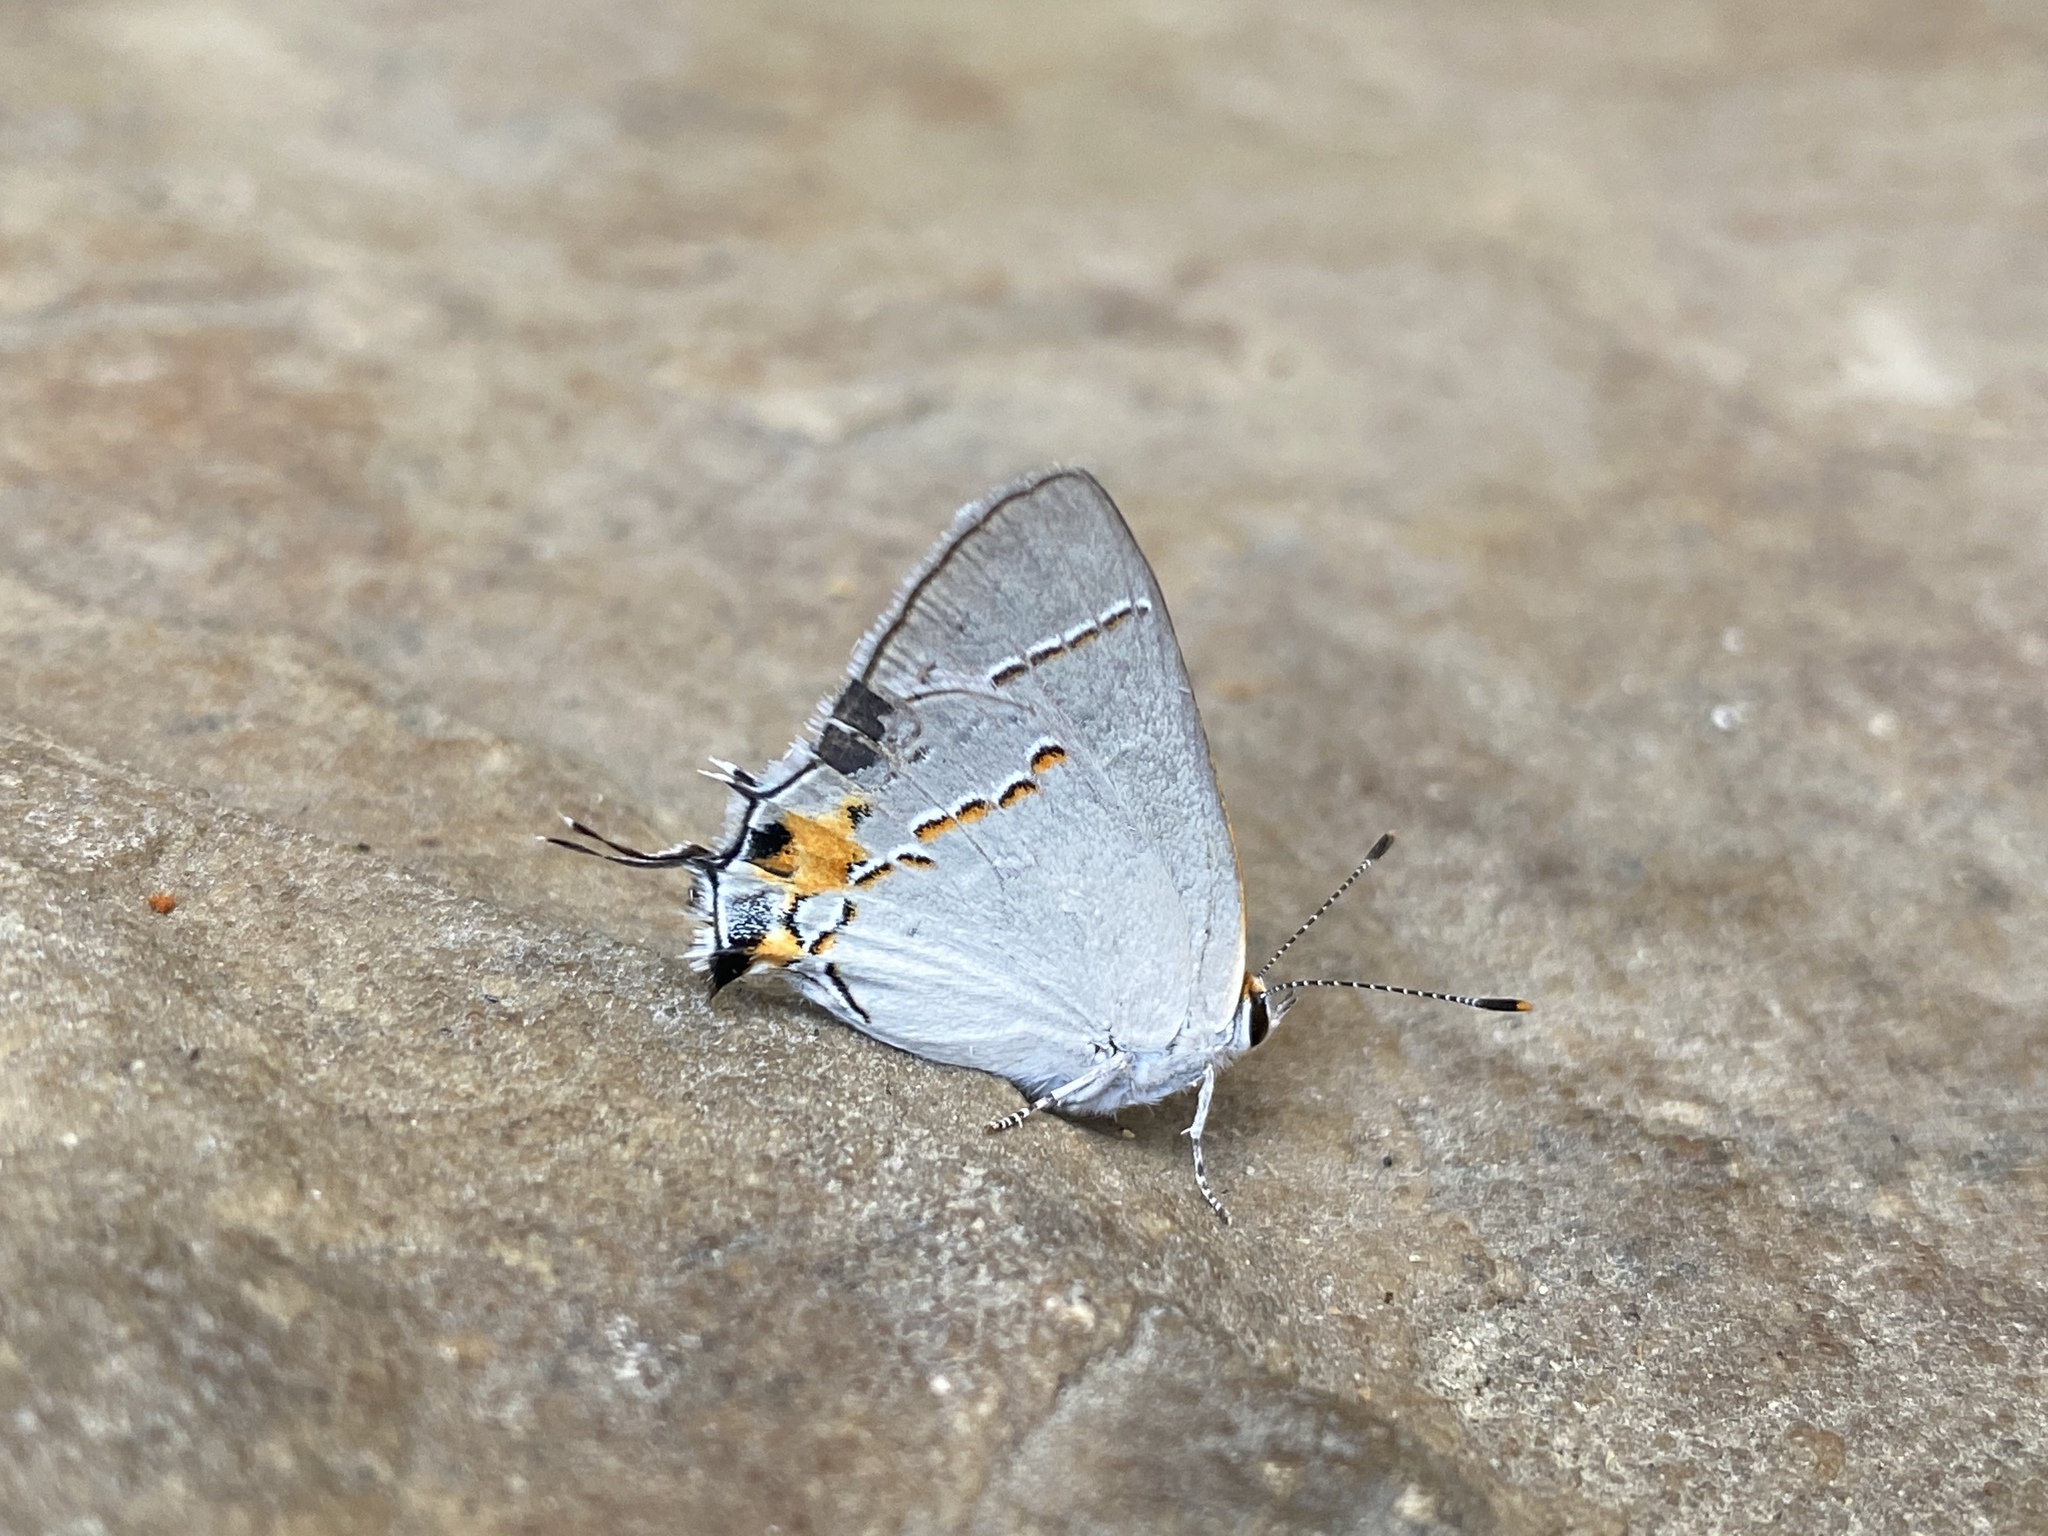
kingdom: Animalia
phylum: Arthropoda
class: Insecta
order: Lepidoptera
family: Lycaenidae
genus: Strymon
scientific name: Strymon melinus
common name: Gray hairstreak
